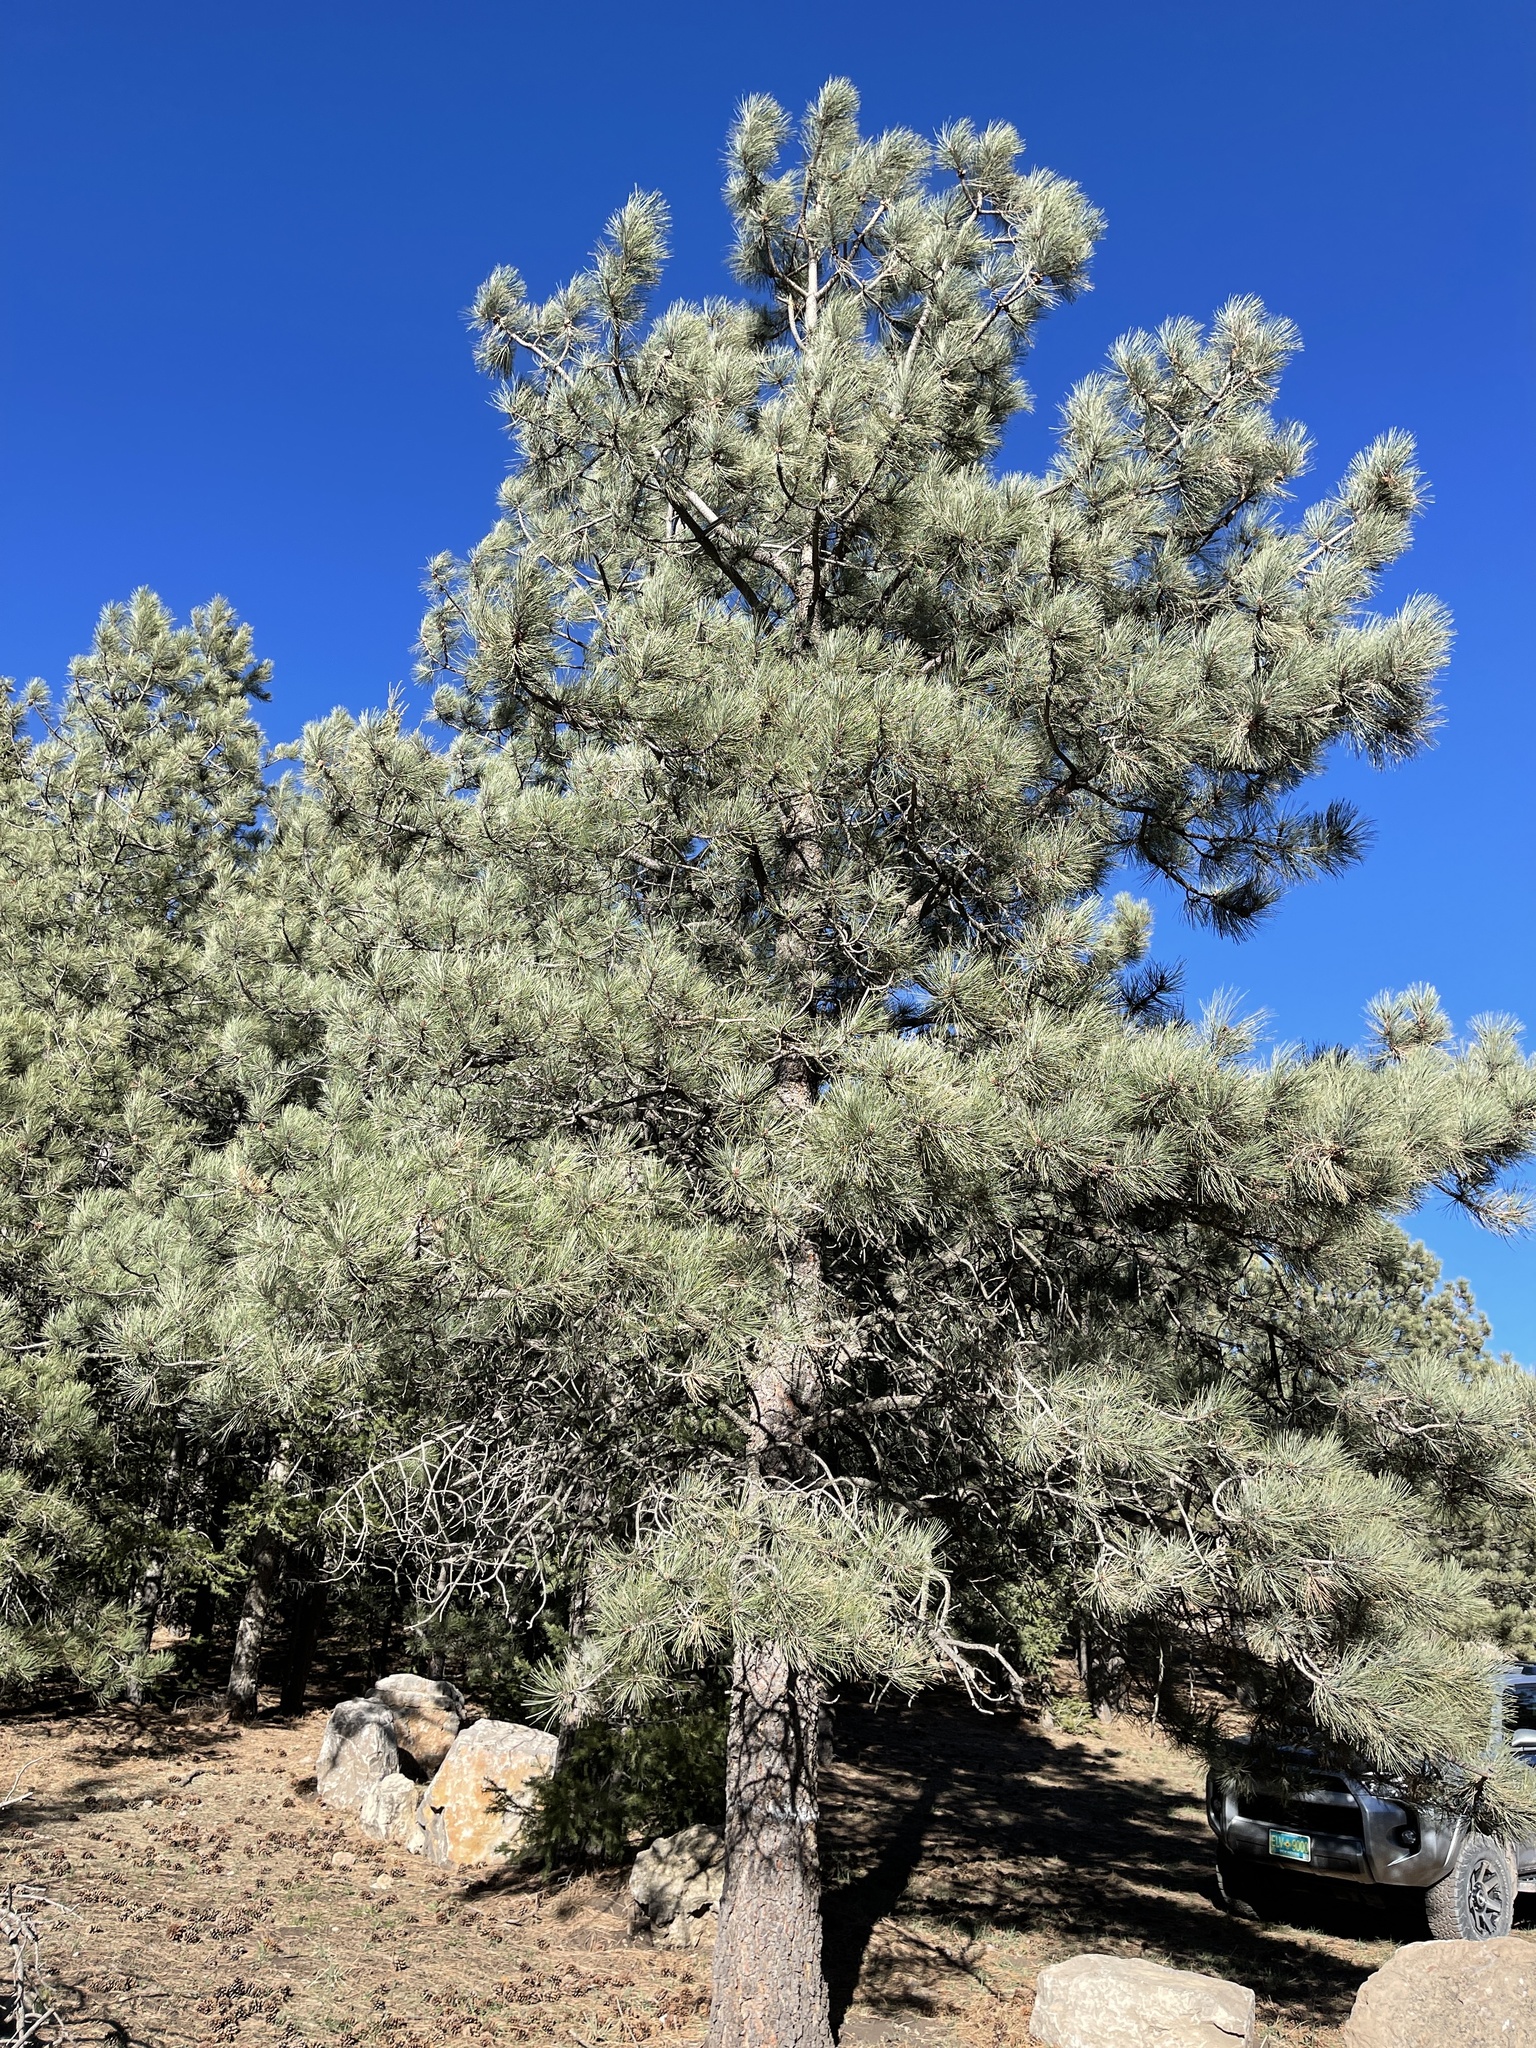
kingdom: Plantae
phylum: Tracheophyta
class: Pinopsida
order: Pinales
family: Pinaceae
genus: Pinus
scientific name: Pinus ponderosa
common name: Western yellow-pine
